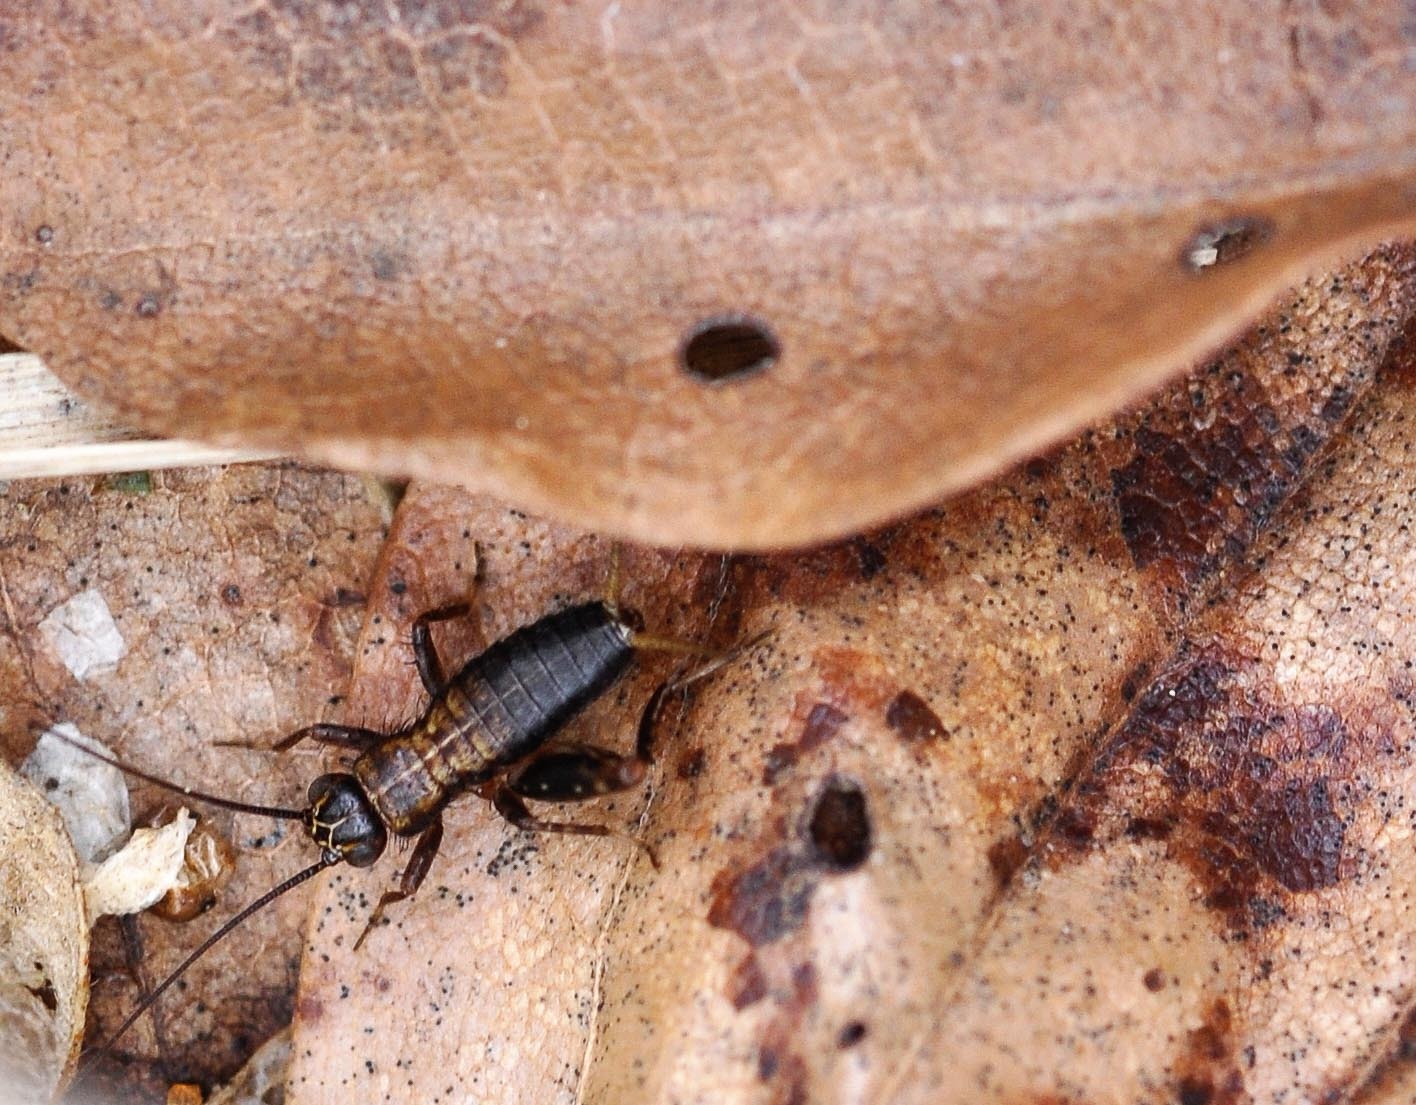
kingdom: Animalia
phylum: Arthropoda
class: Insecta
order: Orthoptera
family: Trigonidiidae
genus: Nemobius
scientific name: Nemobius sylvestris
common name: Wood-cricket
